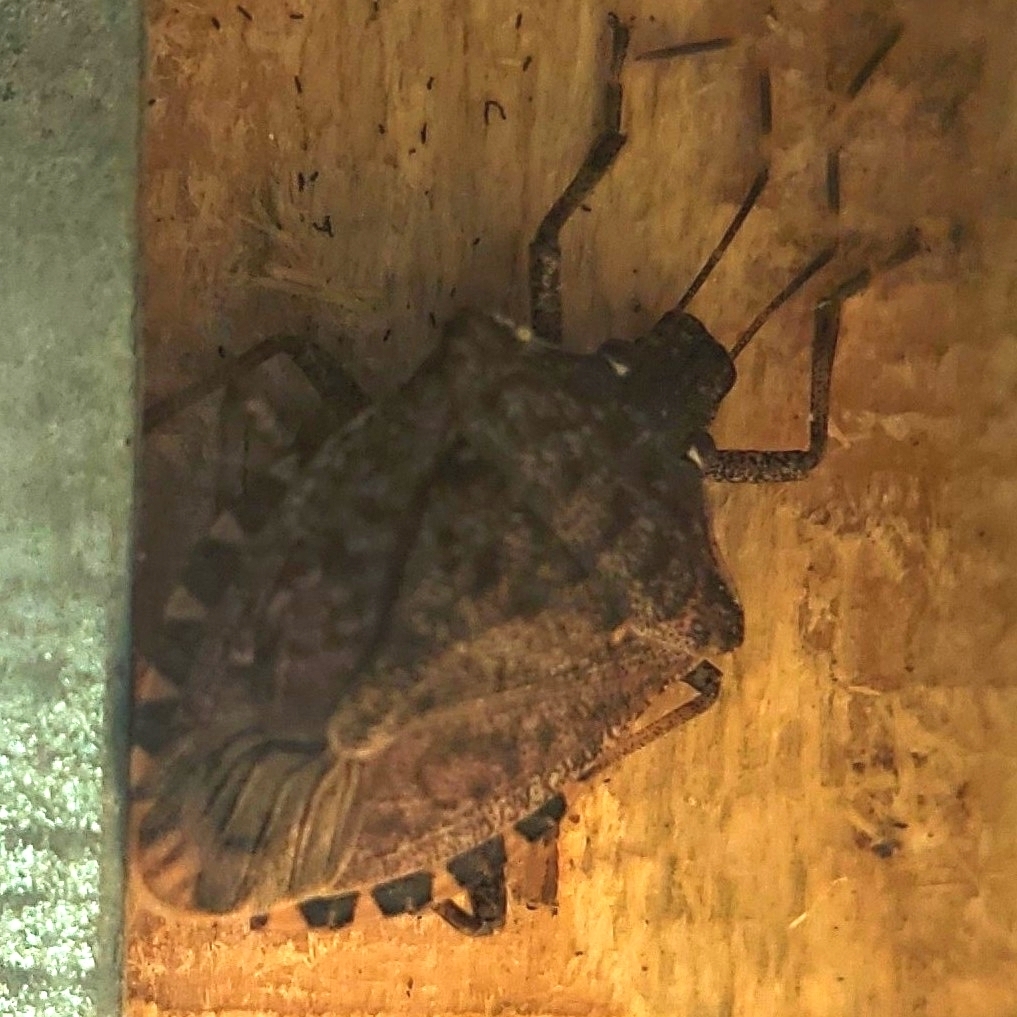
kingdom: Animalia
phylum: Arthropoda
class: Insecta
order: Hemiptera
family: Pentatomidae
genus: Halyomorpha
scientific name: Halyomorpha halys
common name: Brown marmorated stink bug
